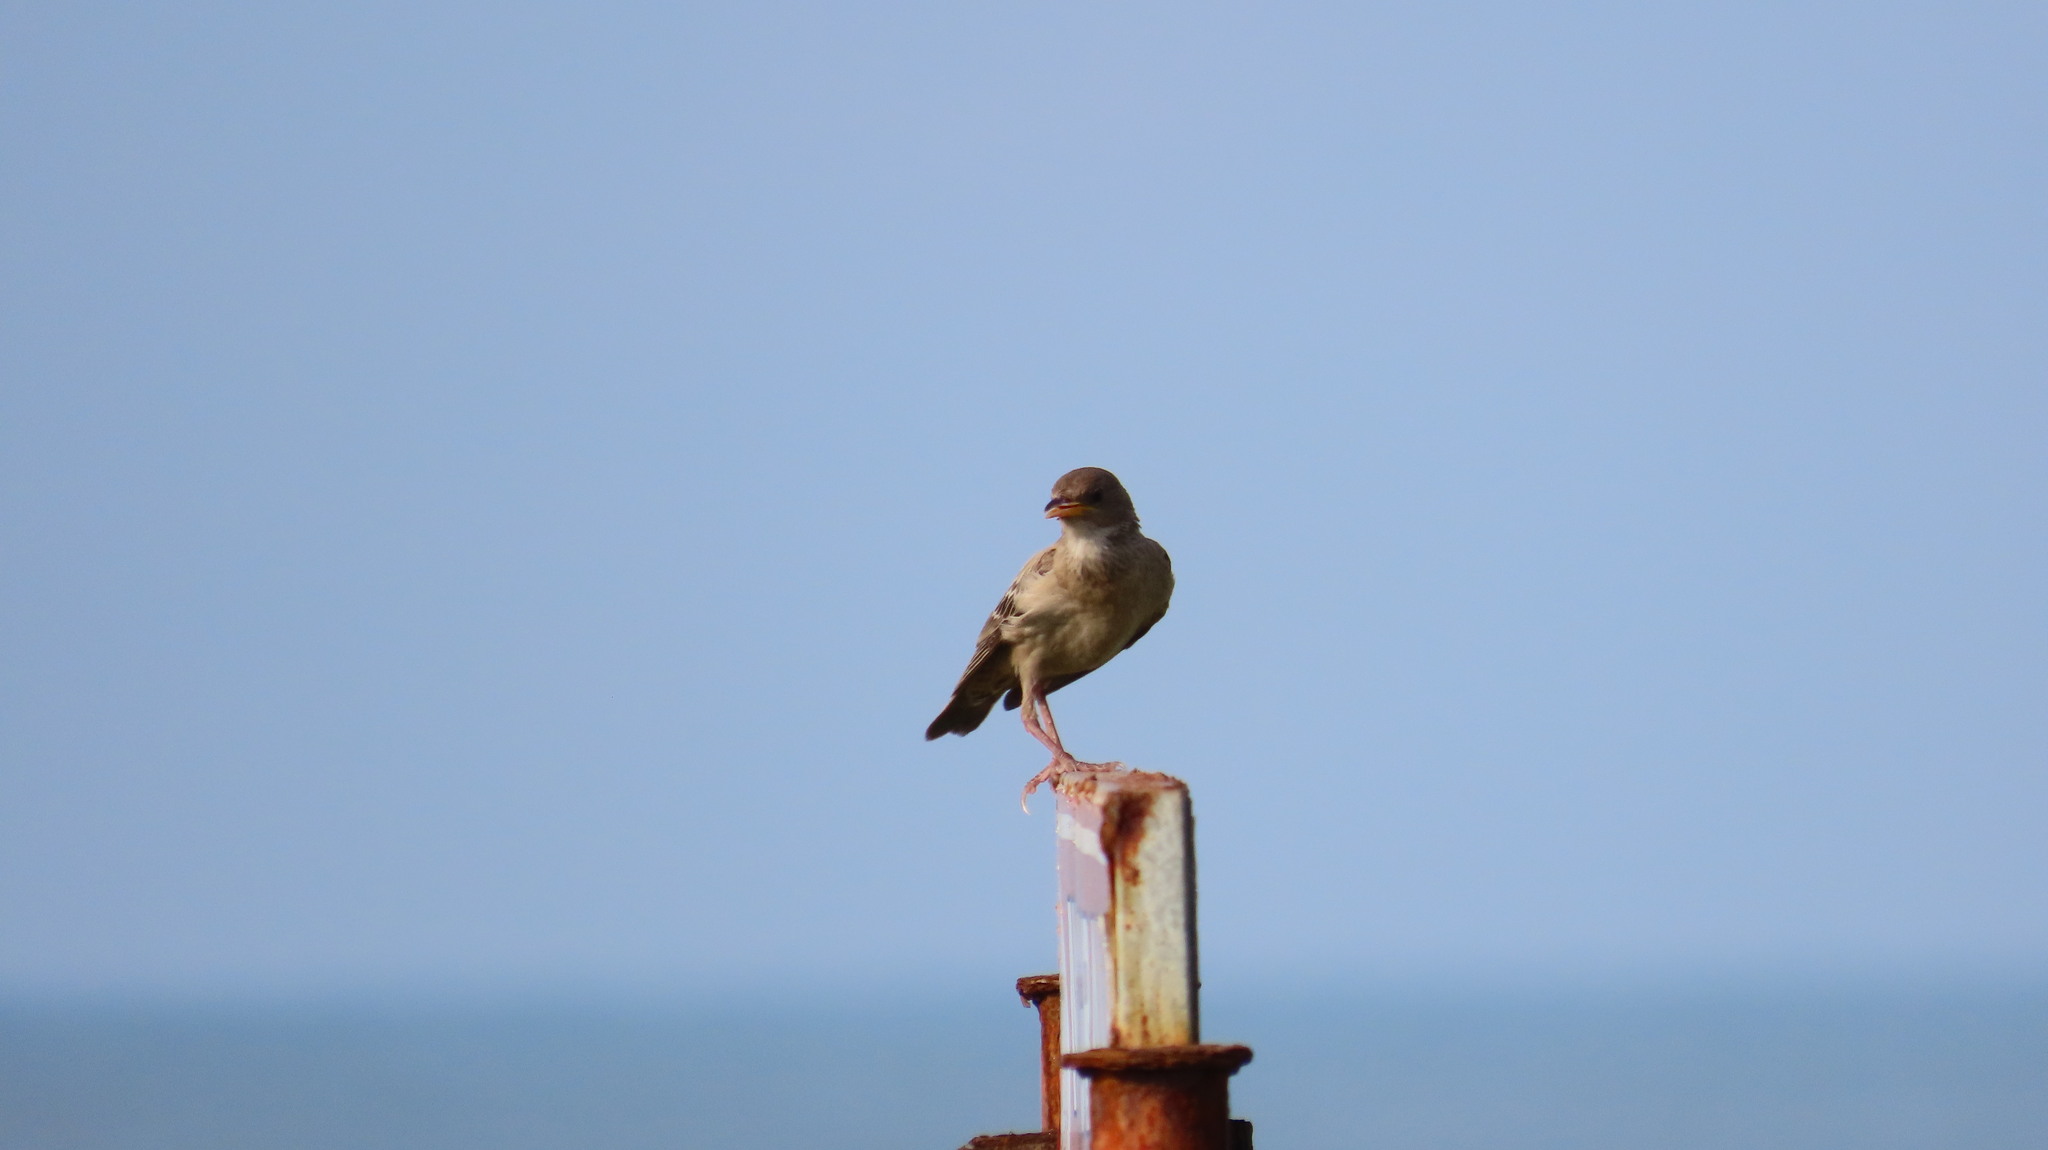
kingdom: Animalia
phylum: Chordata
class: Aves
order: Passeriformes
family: Sturnidae
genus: Pastor
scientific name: Pastor roseus
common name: Rosy starling
